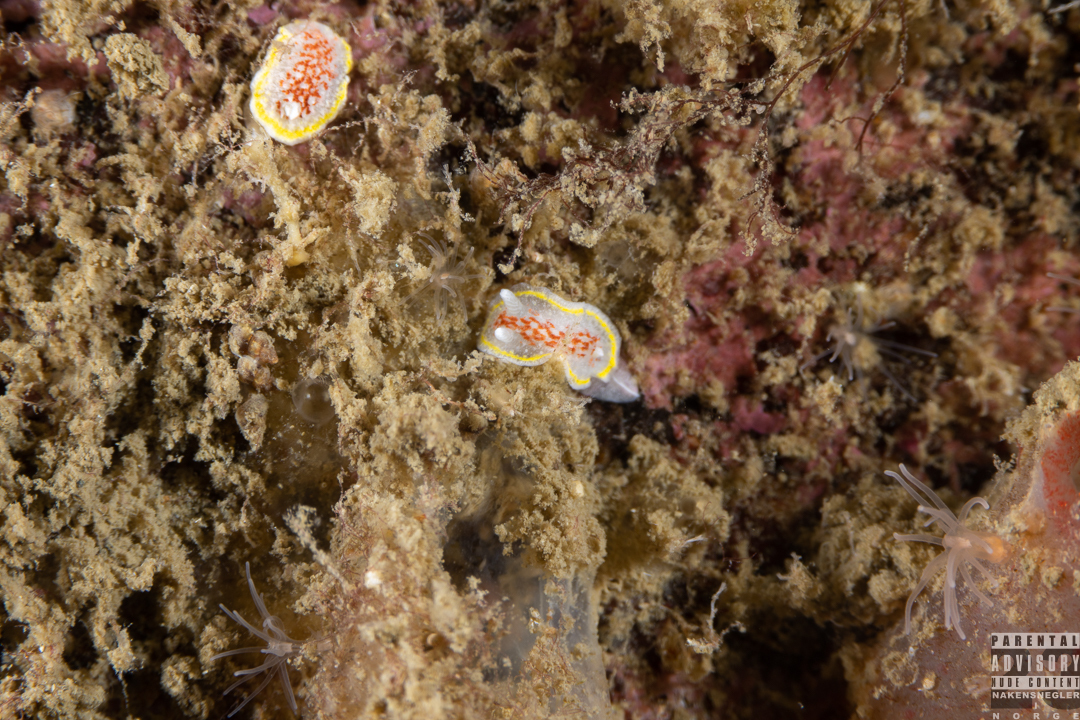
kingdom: Animalia
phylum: Mollusca
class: Gastropoda
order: Nudibranchia
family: Calycidorididae
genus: Diaphorodoris
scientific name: Diaphorodoris luteocincta
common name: Fried egg nudibranch
